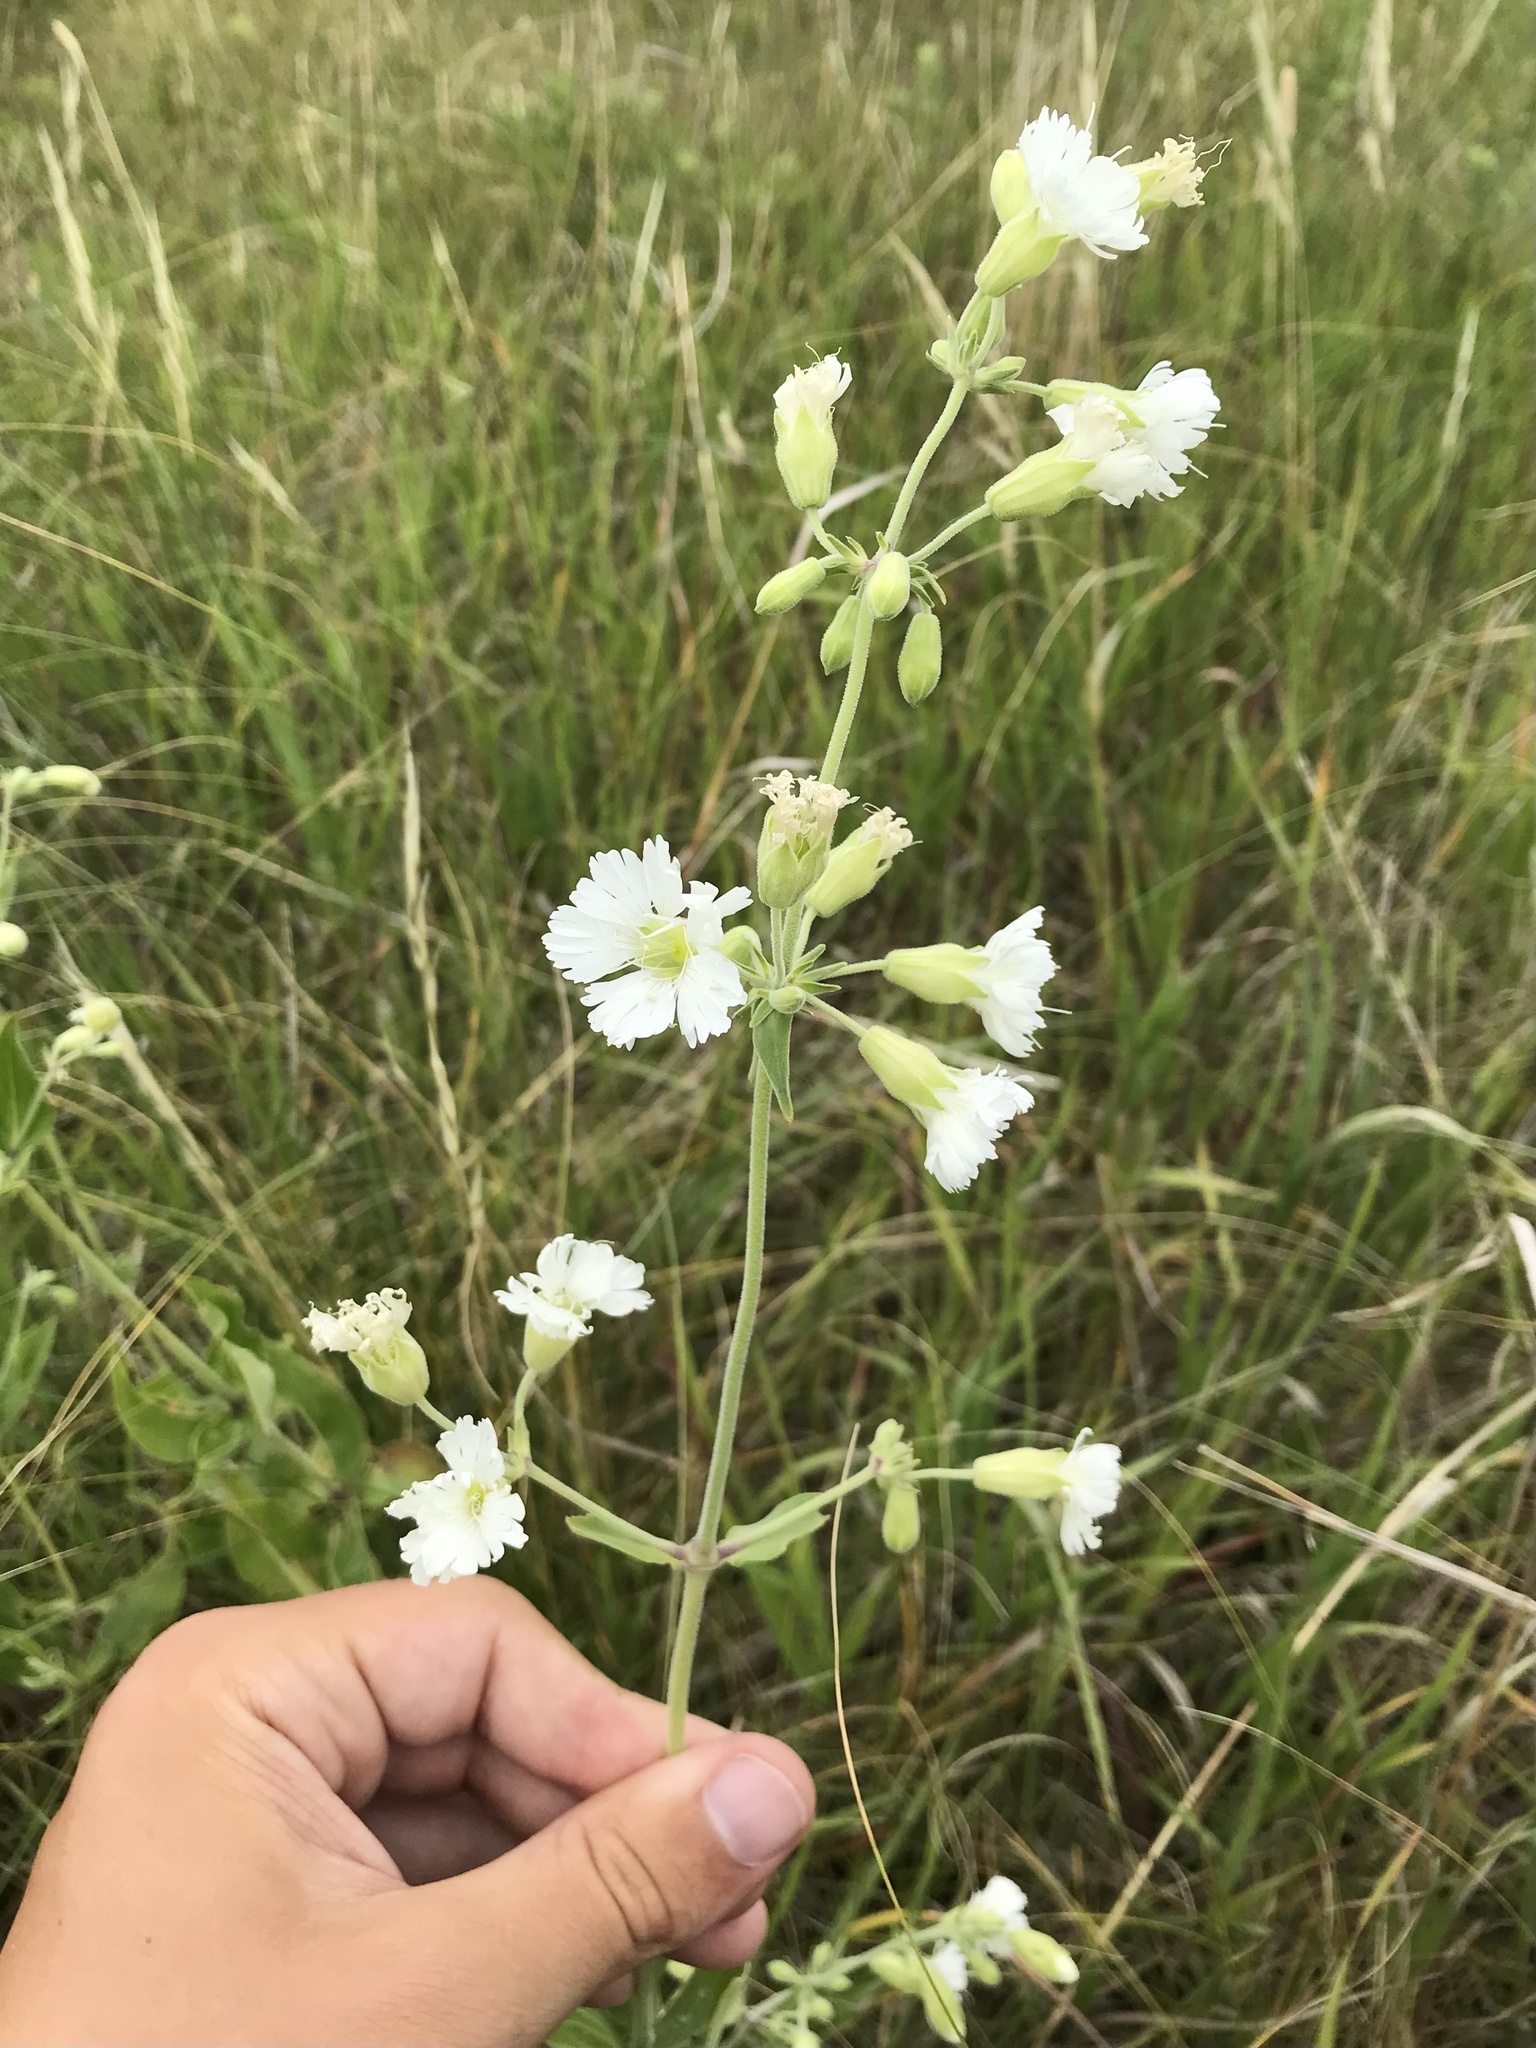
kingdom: Plantae
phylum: Tracheophyta
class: Magnoliopsida
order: Caryophyllales
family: Caryophyllaceae
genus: Silene
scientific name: Silene stellata
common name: Starry campion
